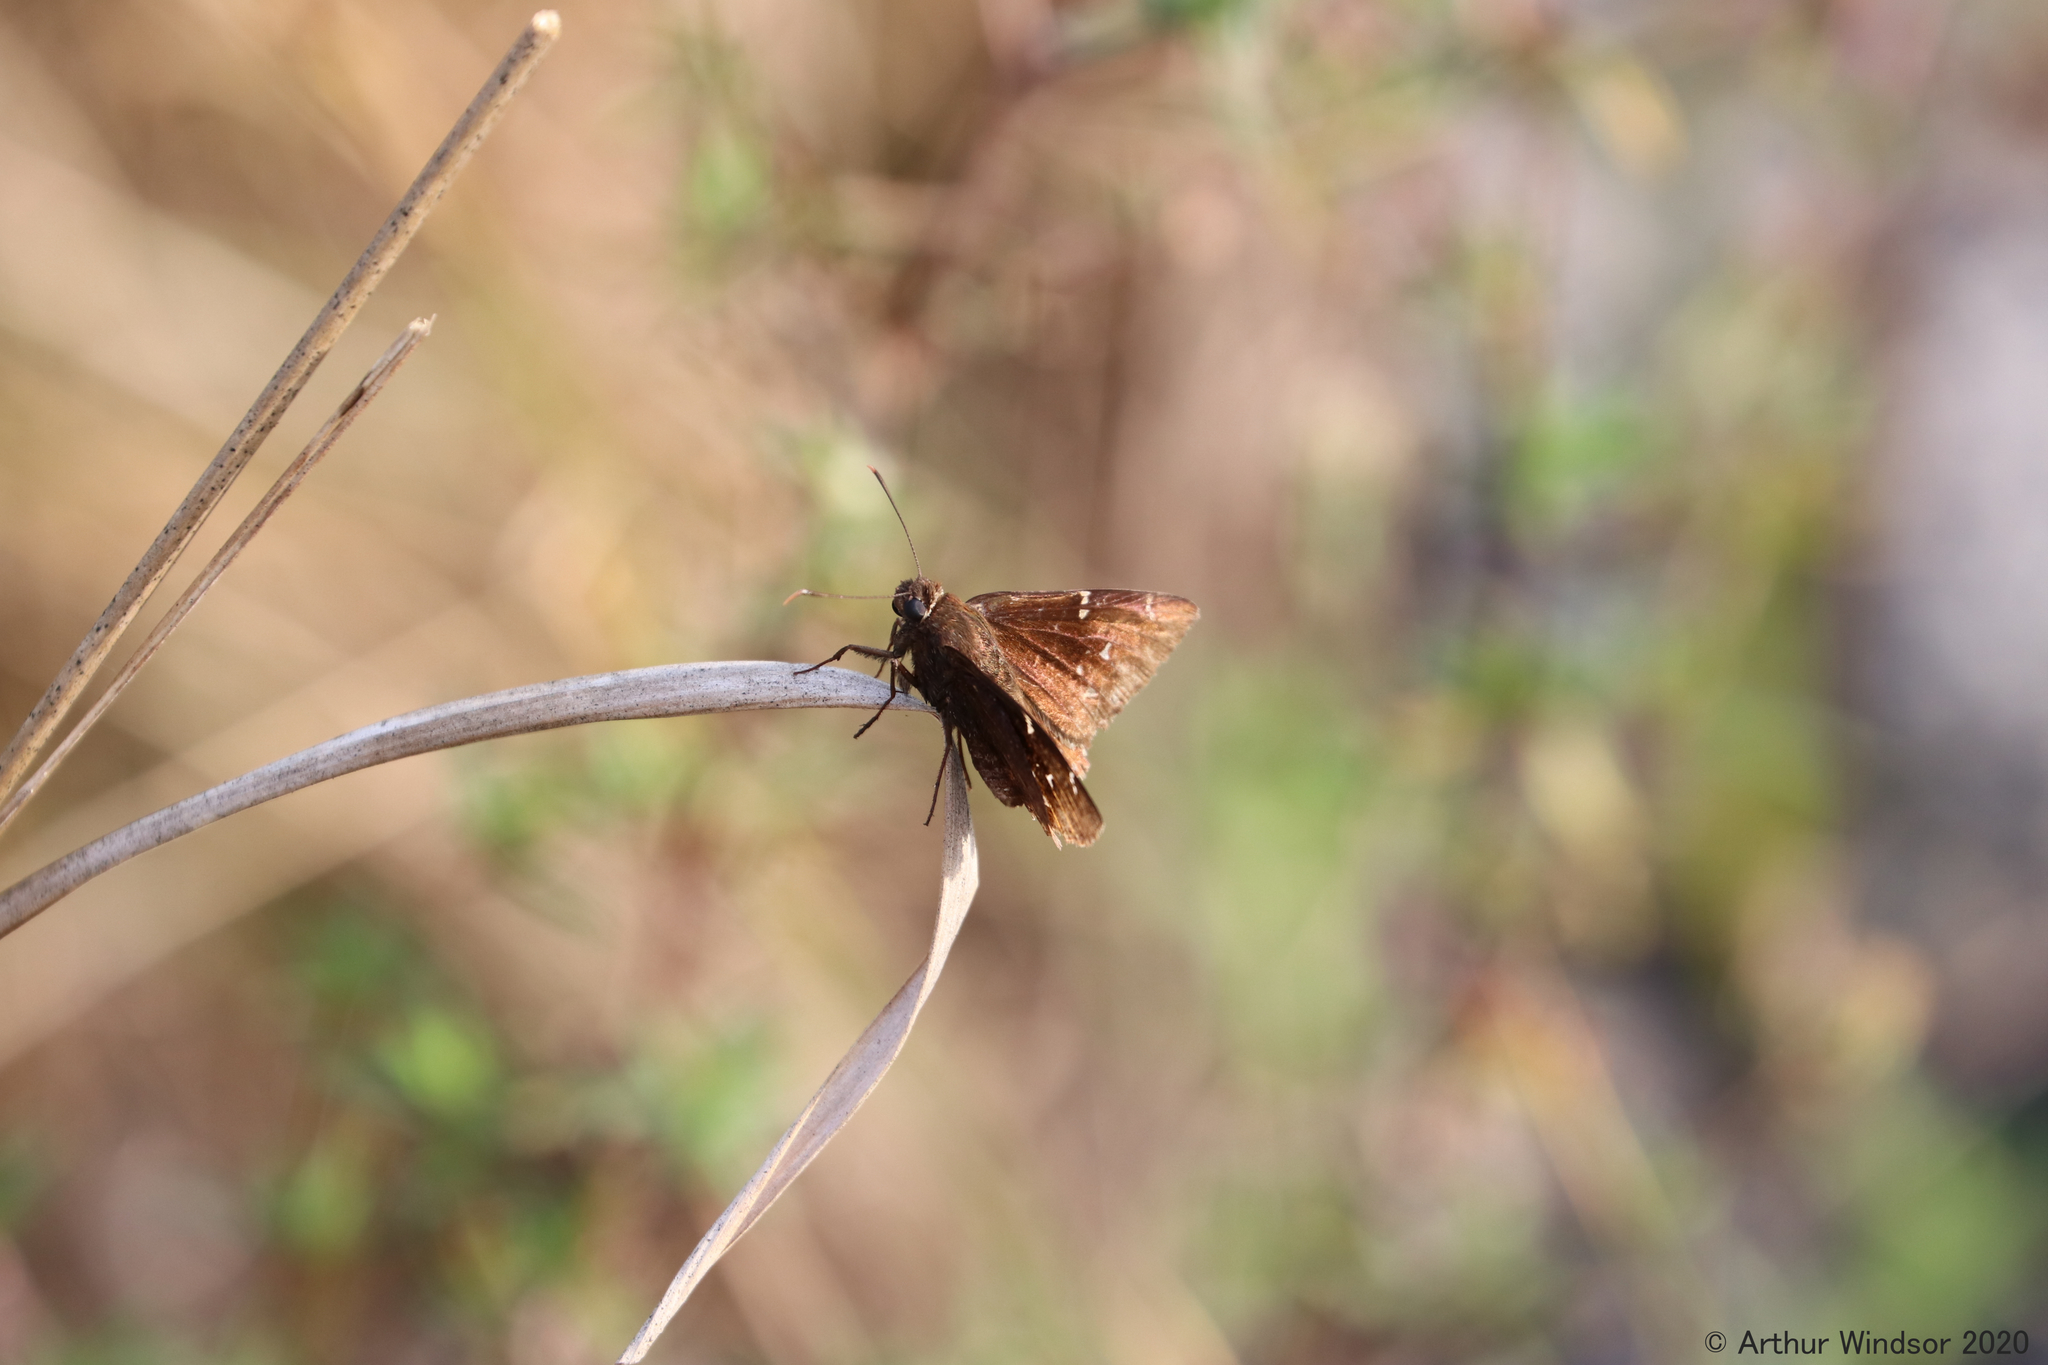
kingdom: Animalia
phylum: Arthropoda
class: Insecta
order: Lepidoptera
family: Hesperiidae
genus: Thorybes
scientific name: Thorybes pylades
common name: Northern cloudywing
